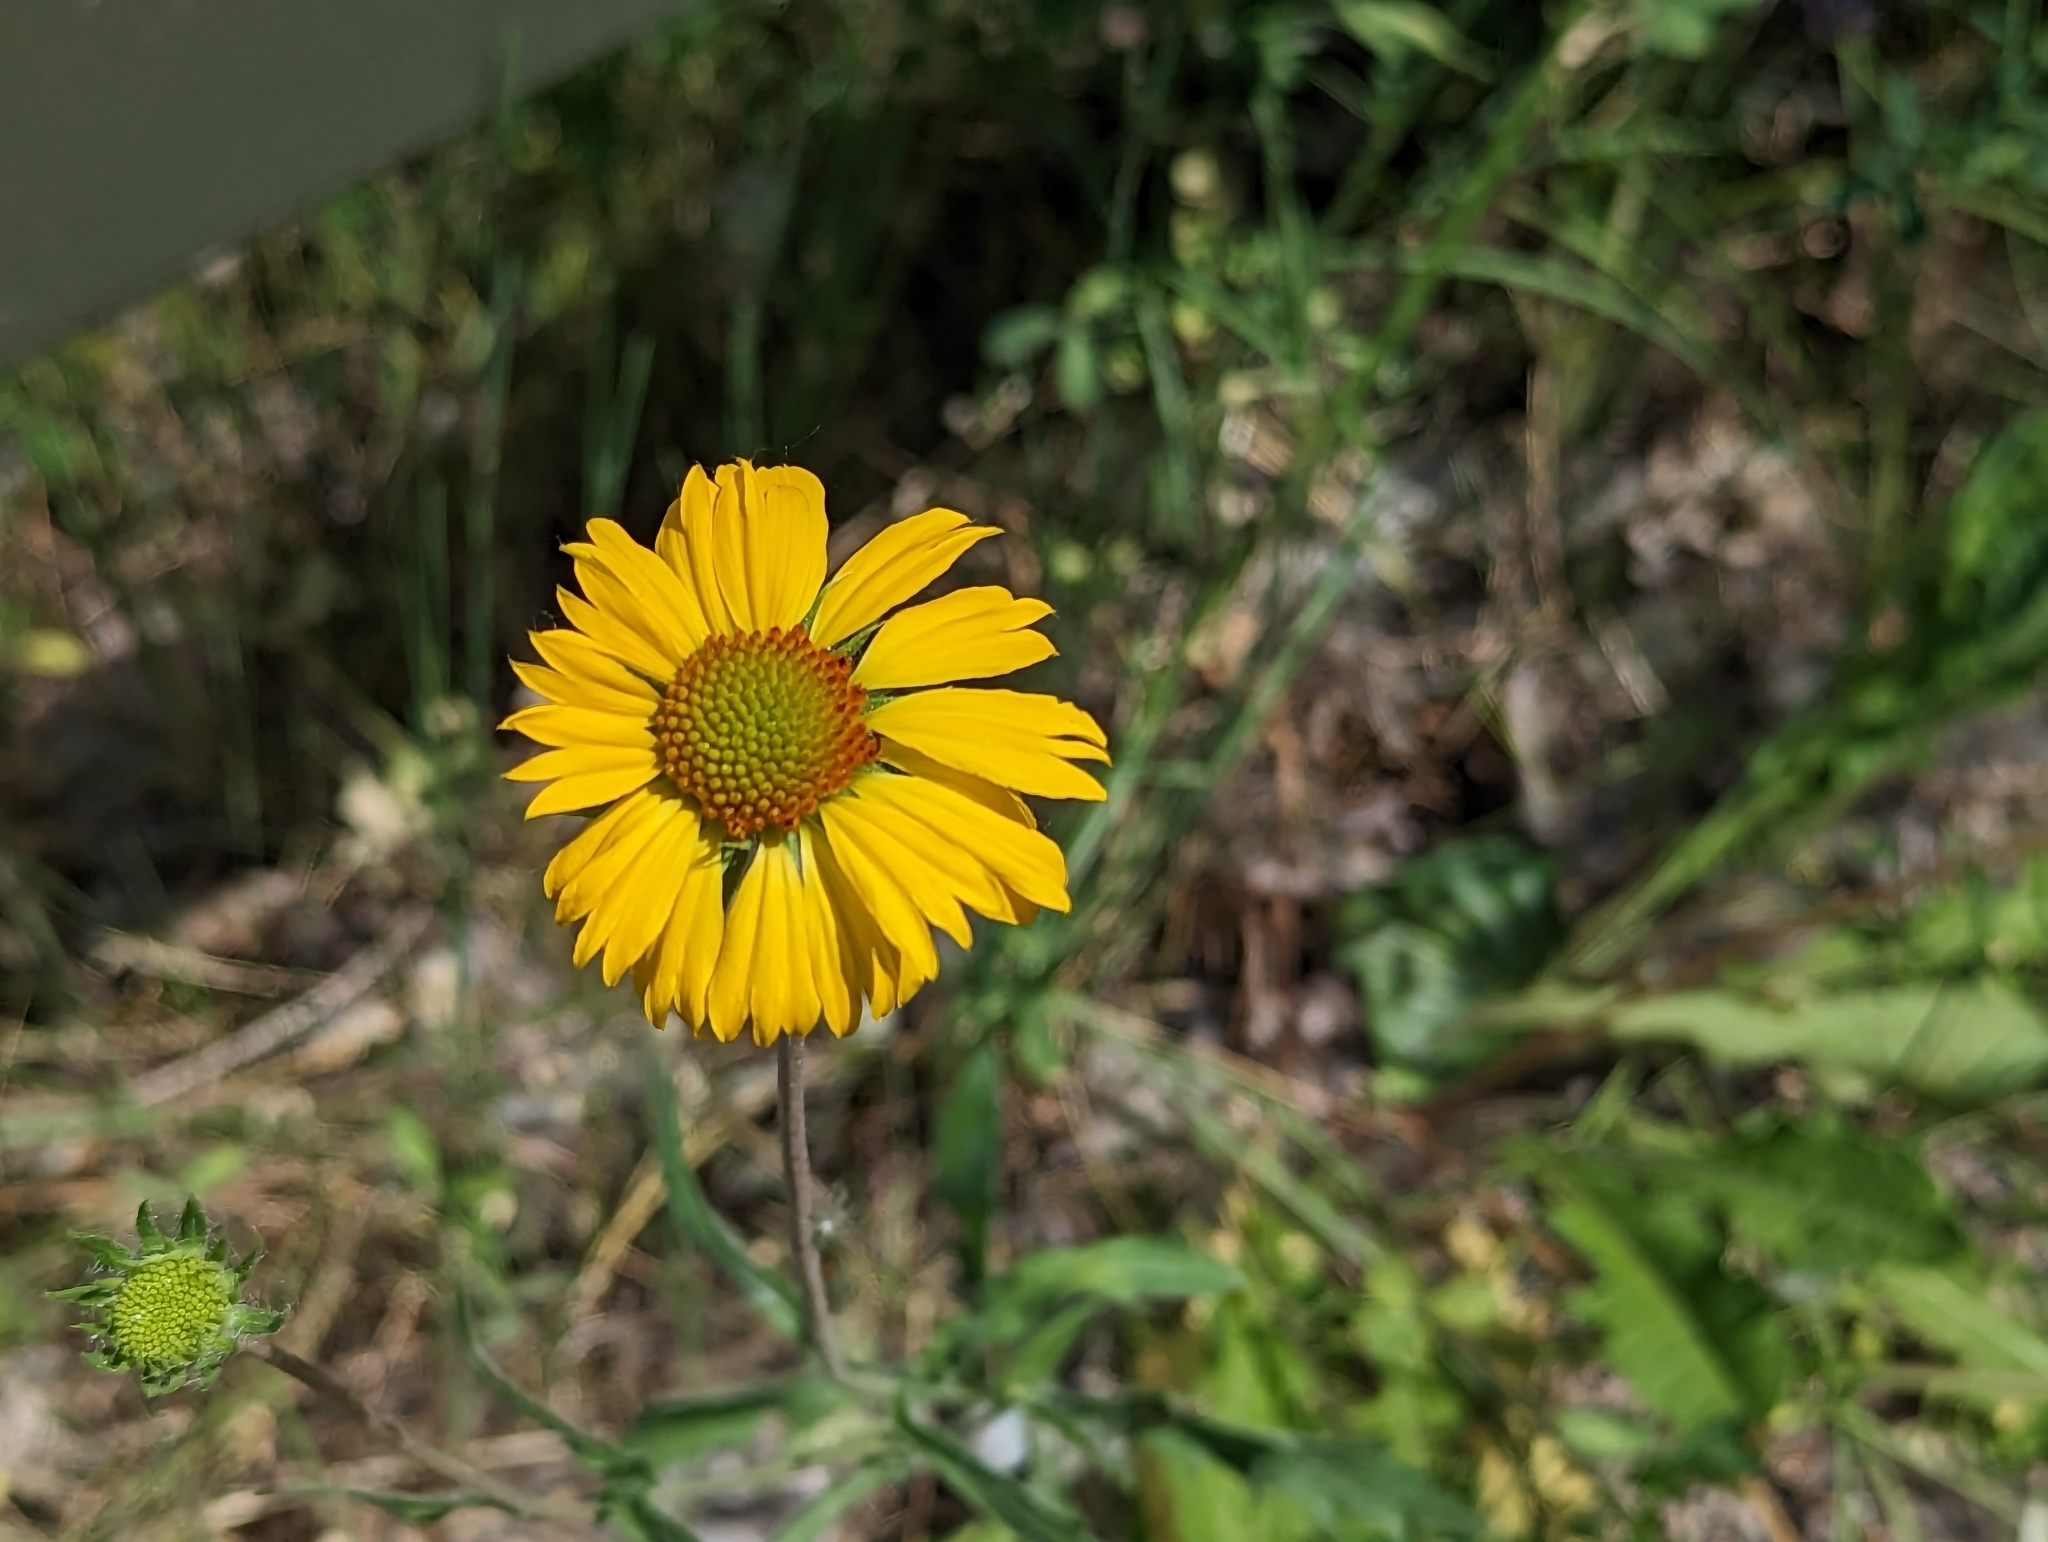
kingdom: Plantae
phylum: Tracheophyta
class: Magnoliopsida
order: Asterales
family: Asteraceae
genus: Gaillardia
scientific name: Gaillardia aristata
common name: Blanket-flower
